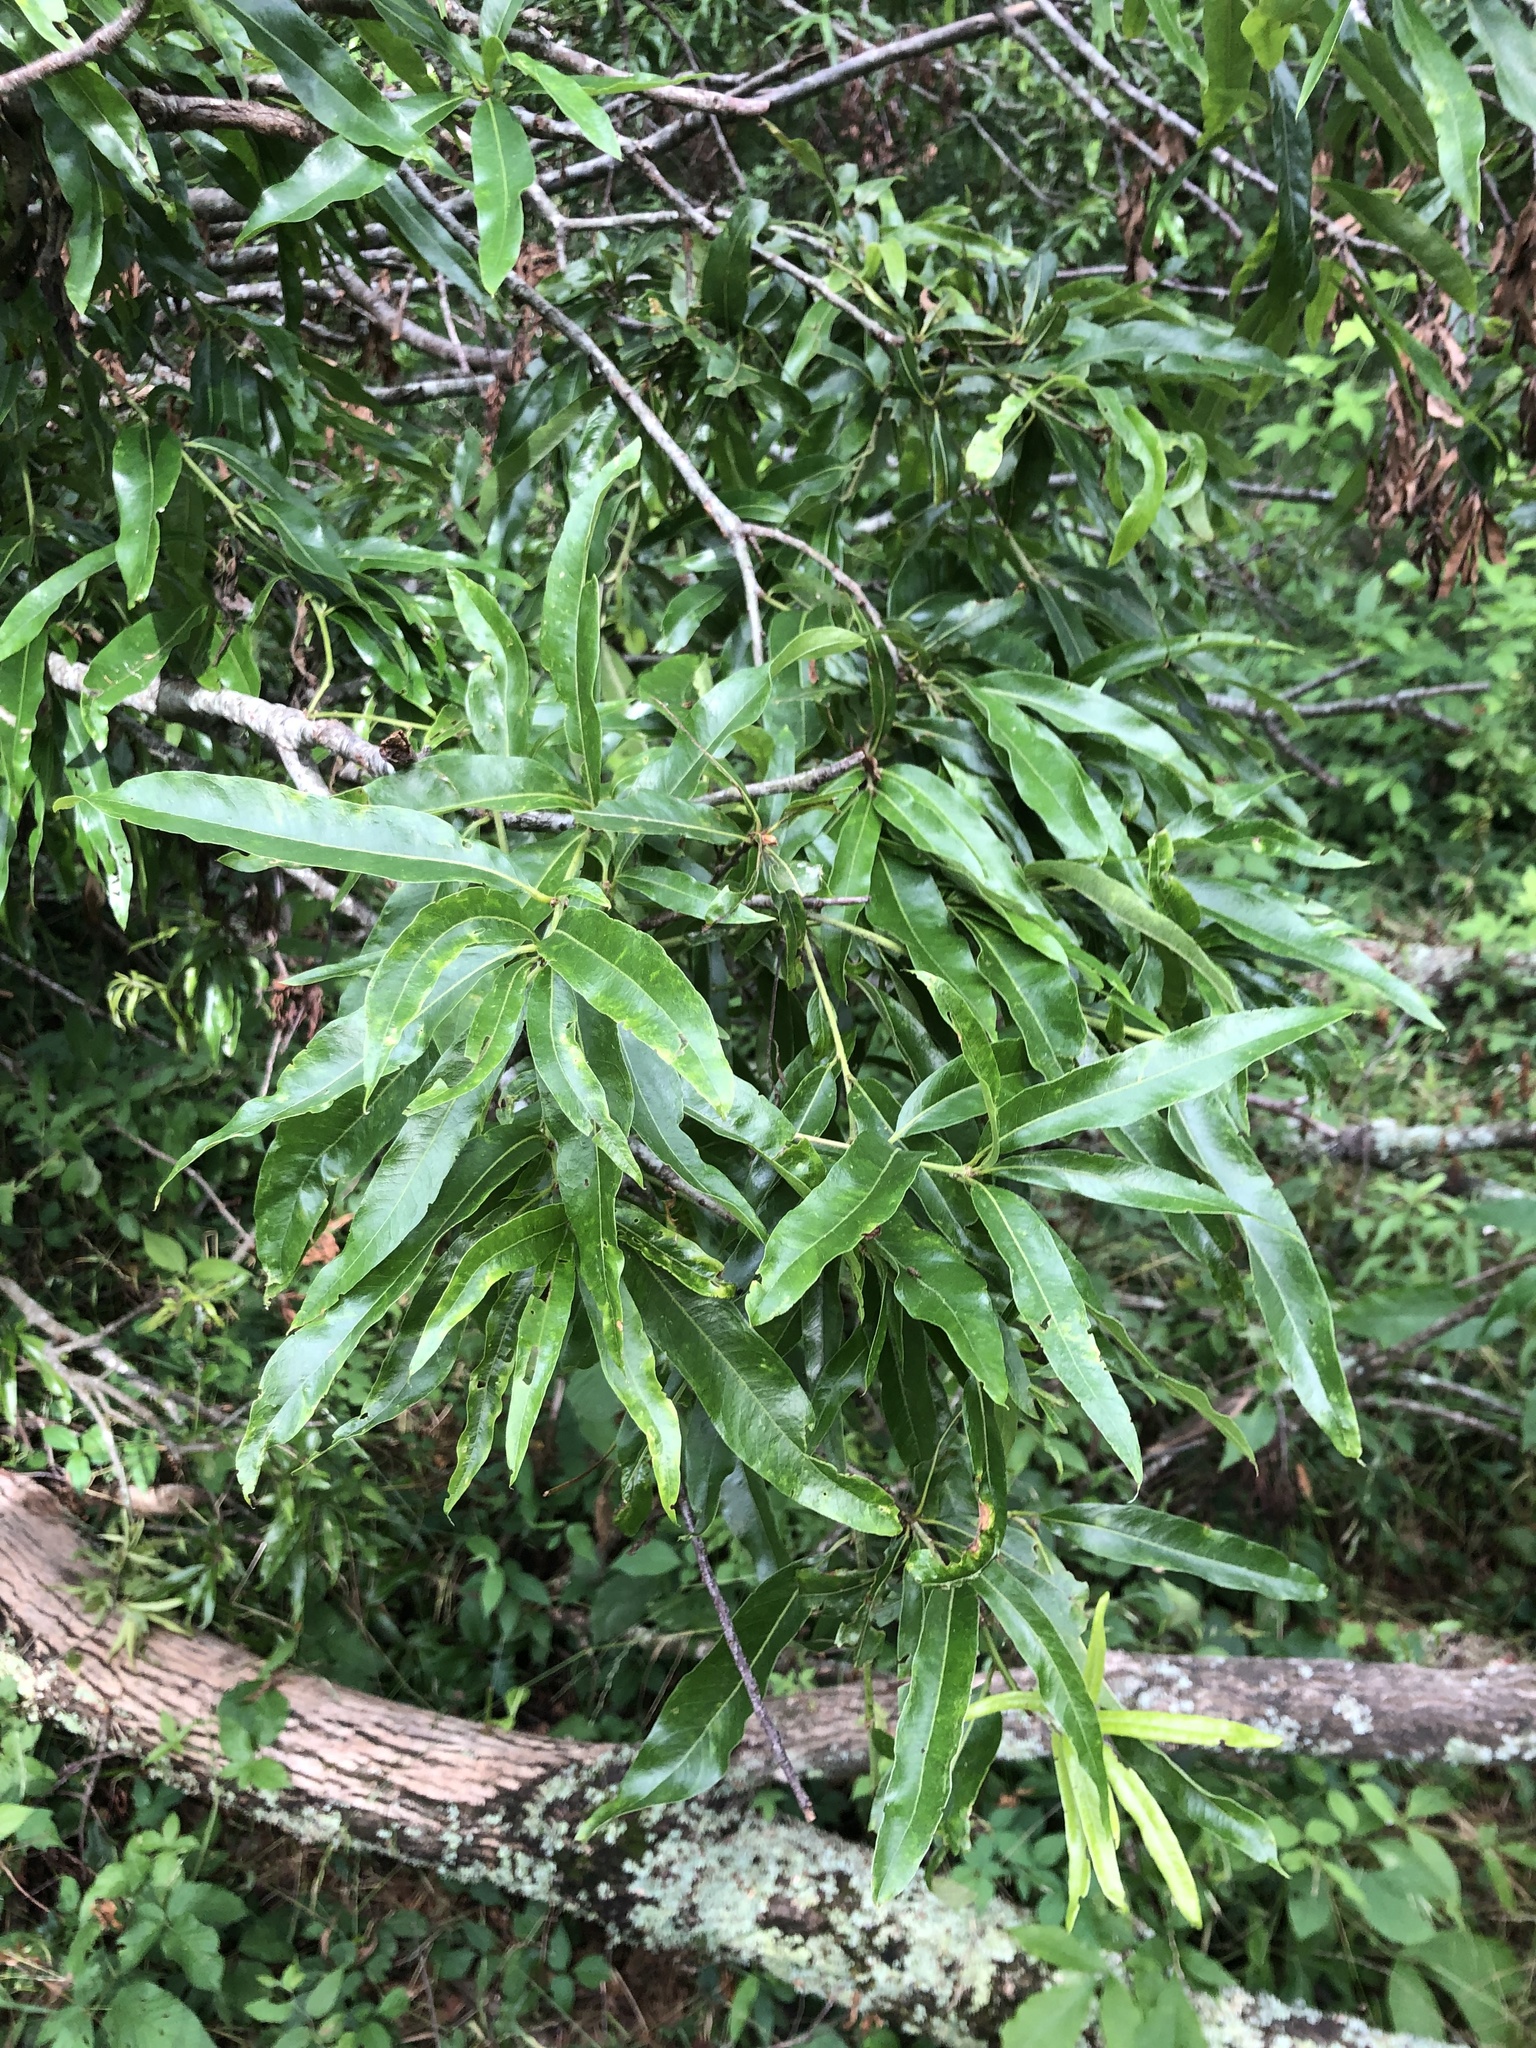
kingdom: Plantae
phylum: Tracheophyta
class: Magnoliopsida
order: Fagales
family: Fagaceae
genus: Quercus
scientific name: Quercus phellos
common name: Willow oak
